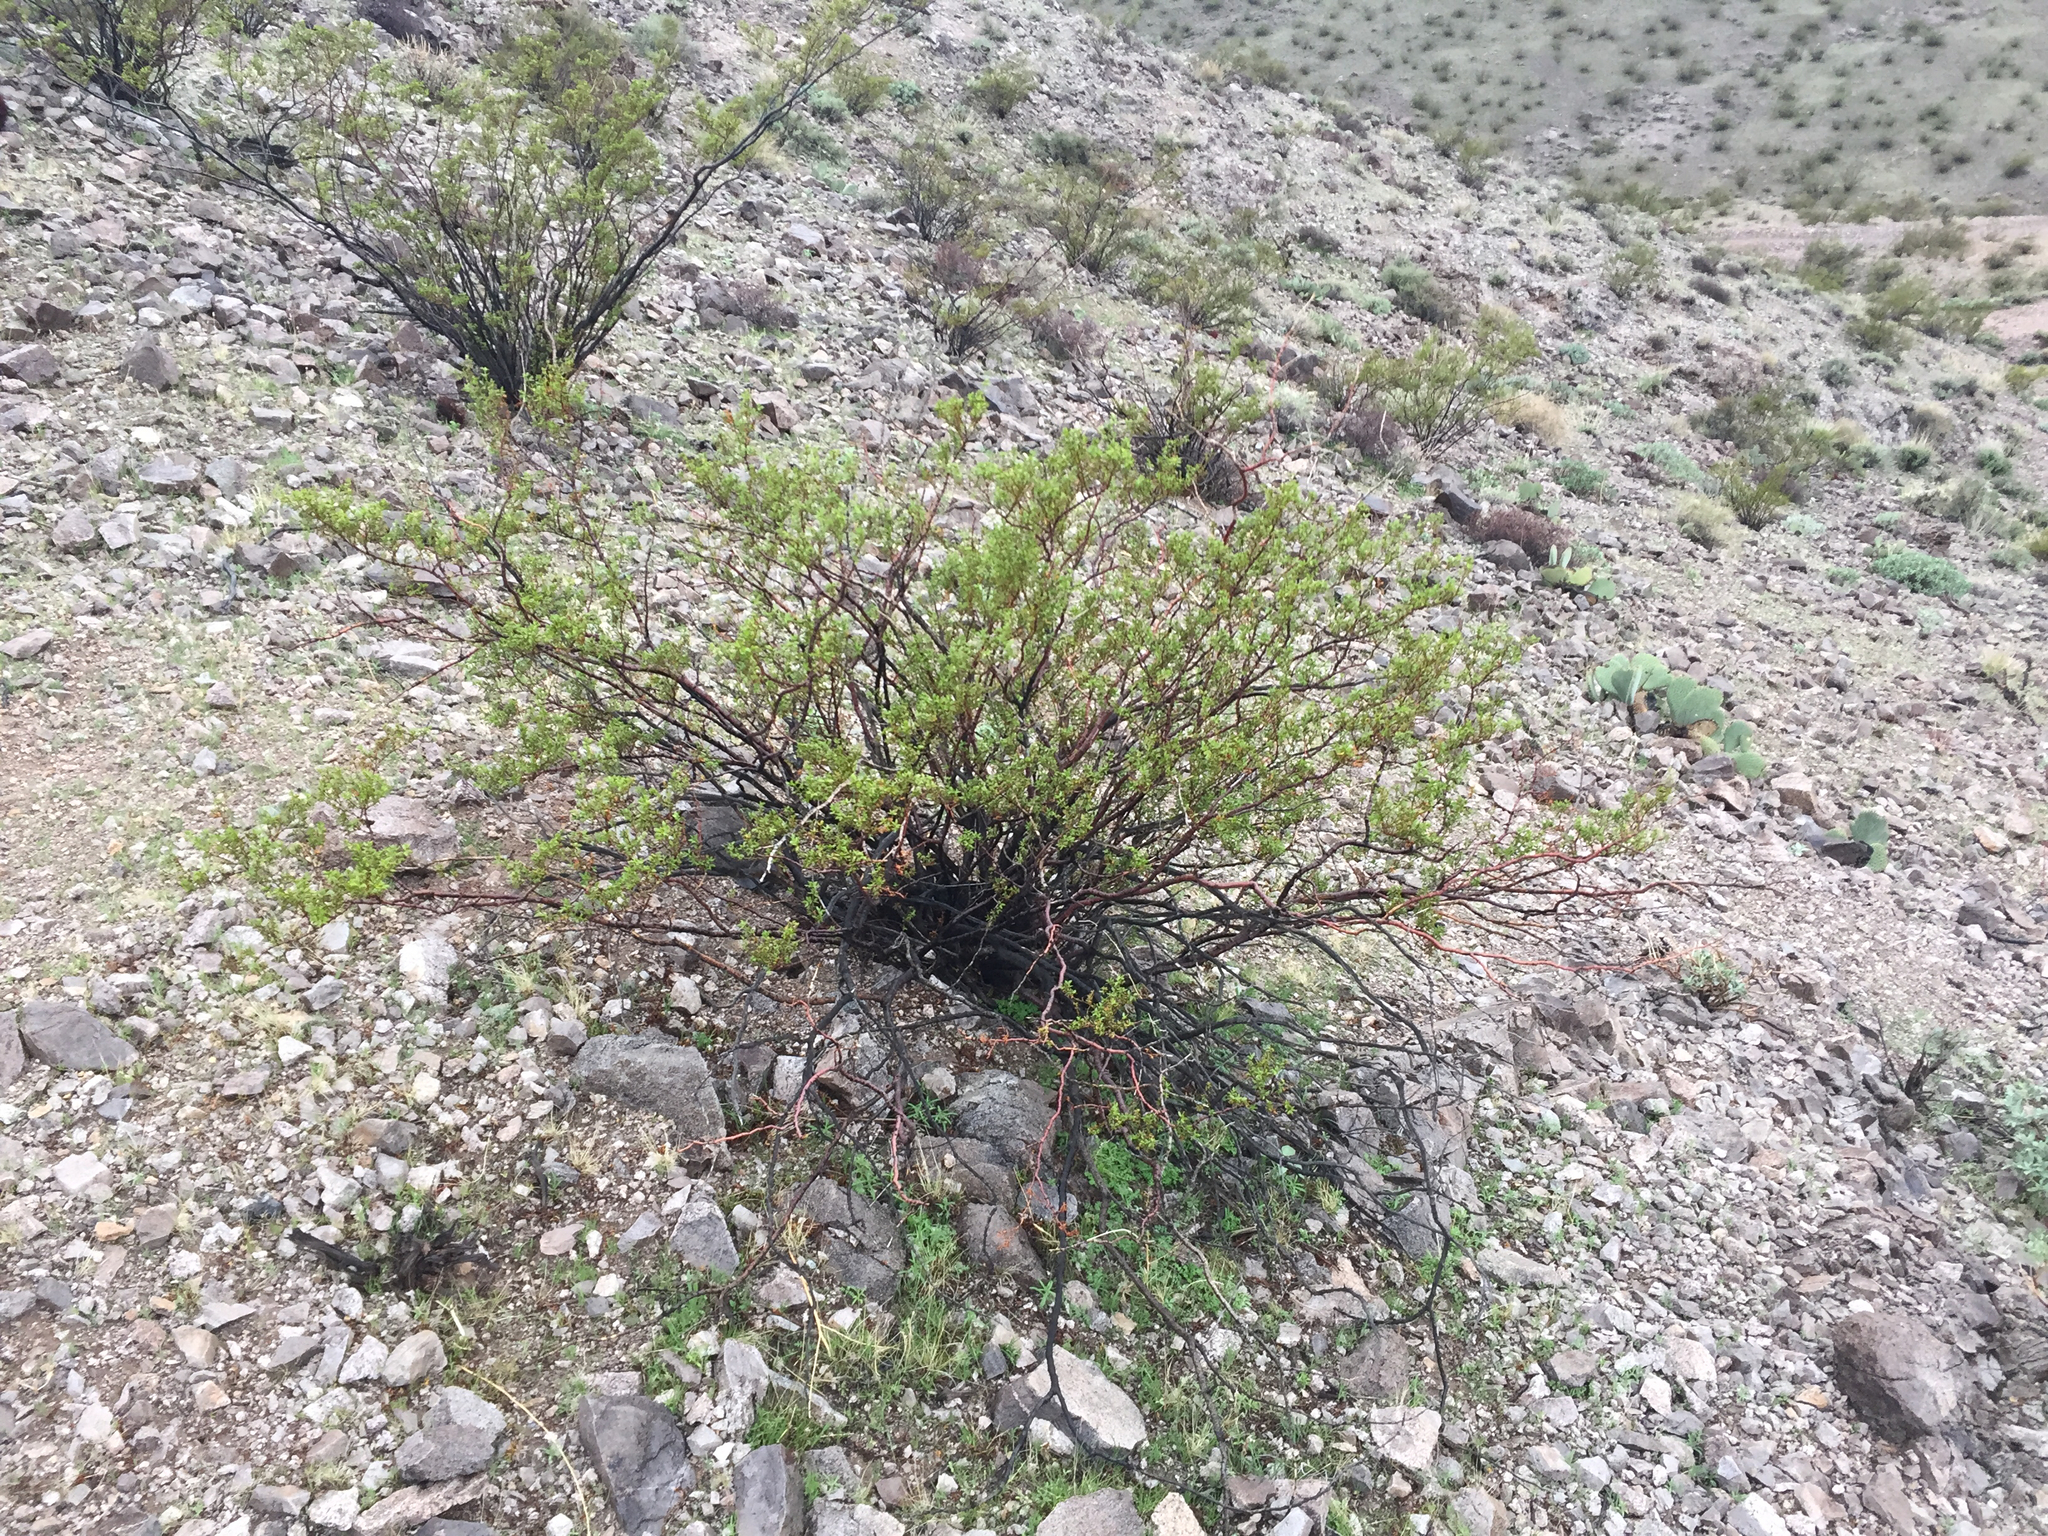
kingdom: Plantae
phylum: Tracheophyta
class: Magnoliopsida
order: Zygophyllales
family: Zygophyllaceae
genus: Larrea
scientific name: Larrea tridentata
